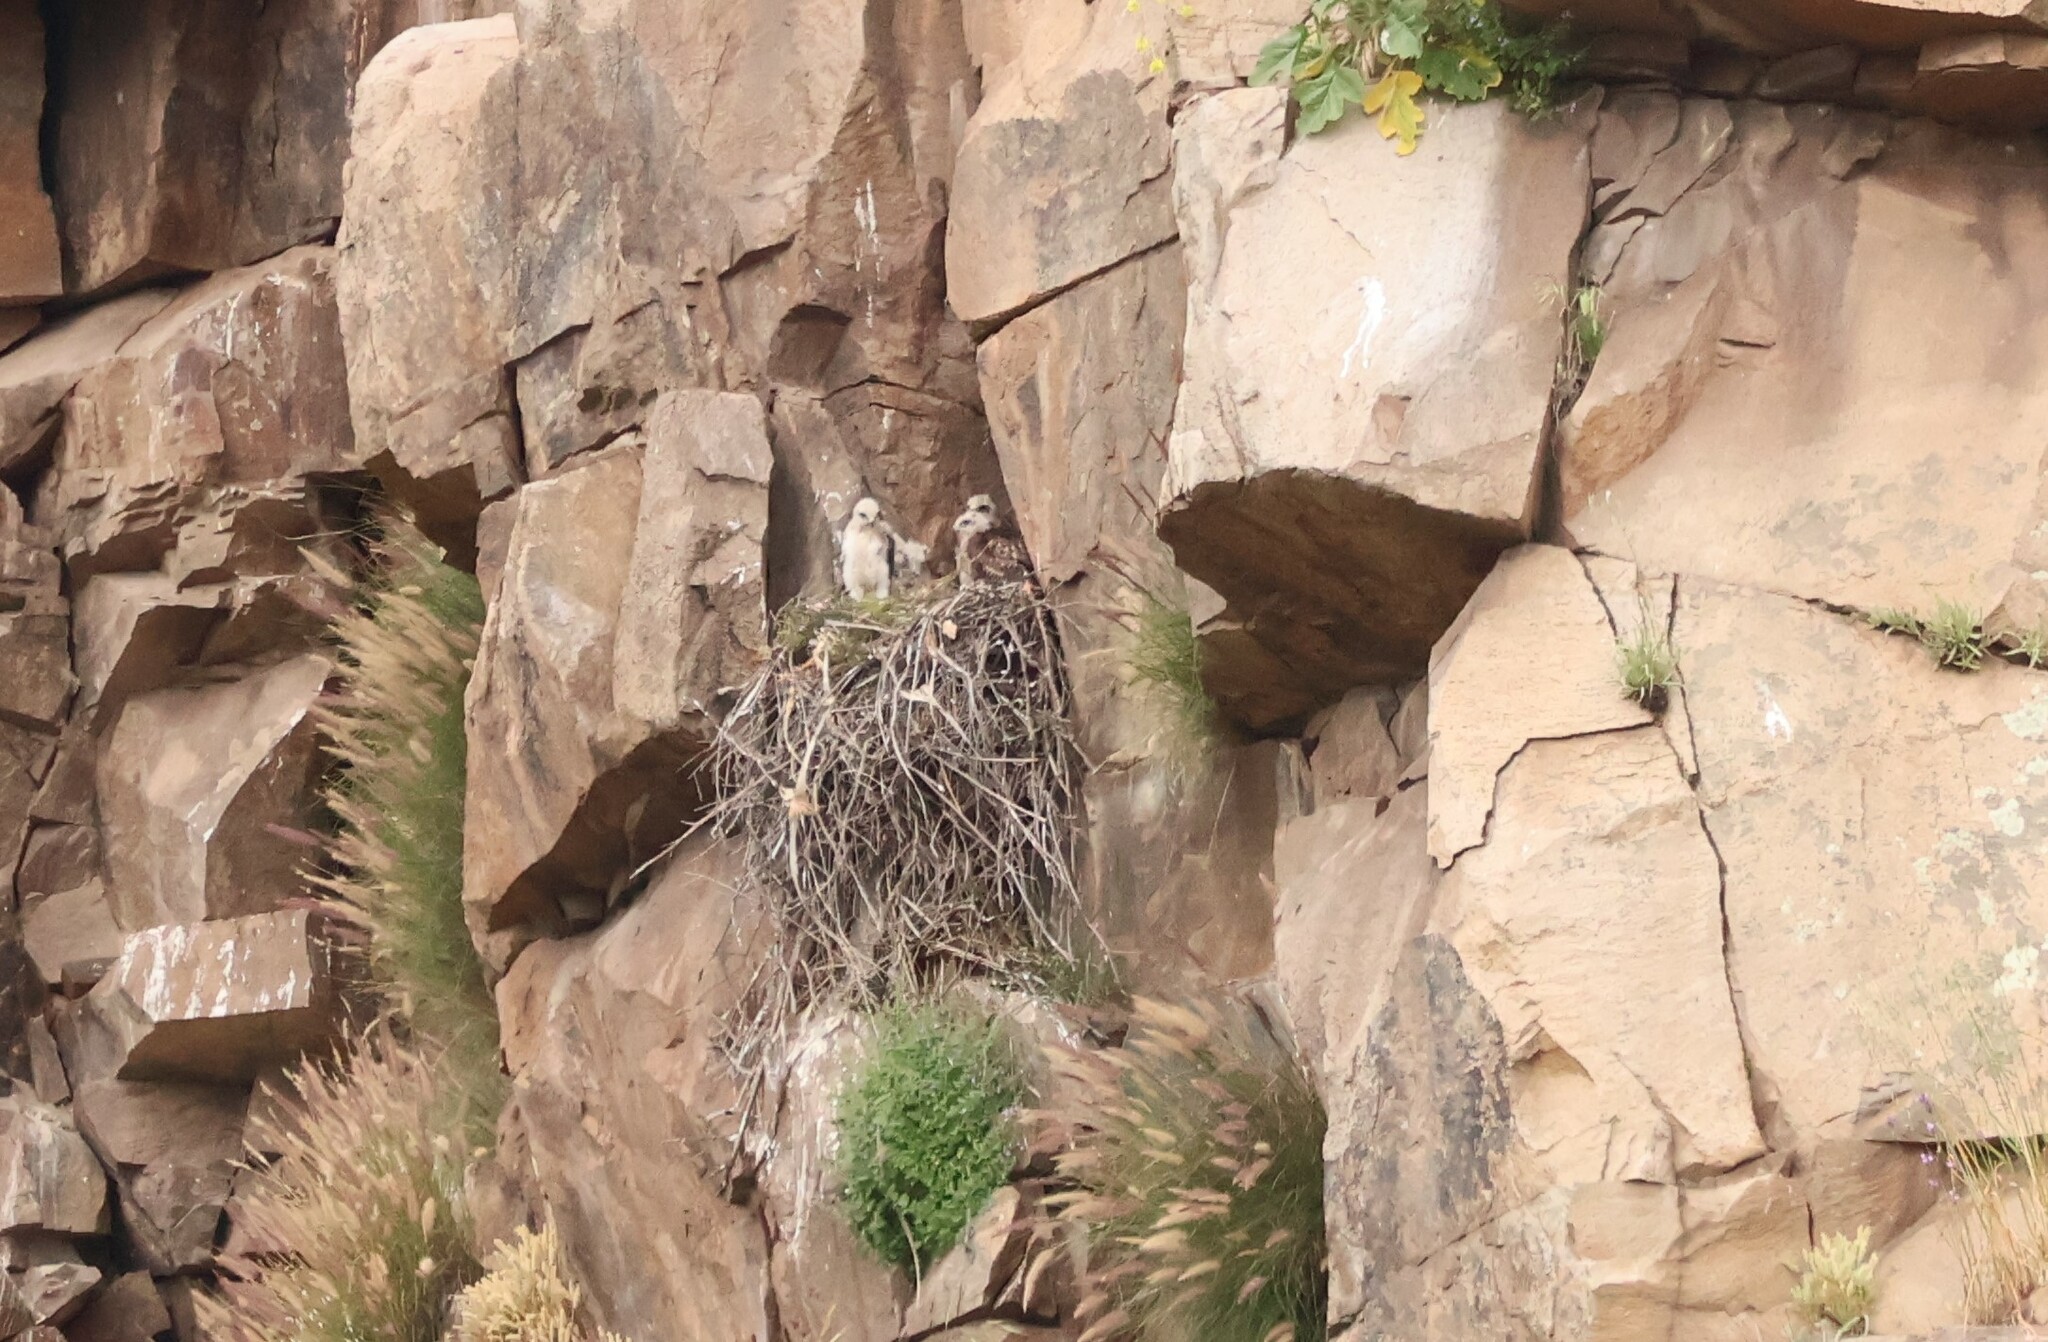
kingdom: Animalia
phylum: Chordata
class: Aves
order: Accipitriformes
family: Accipitridae
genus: Buteo
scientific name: Buteo jamaicensis
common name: Red-tailed hawk
